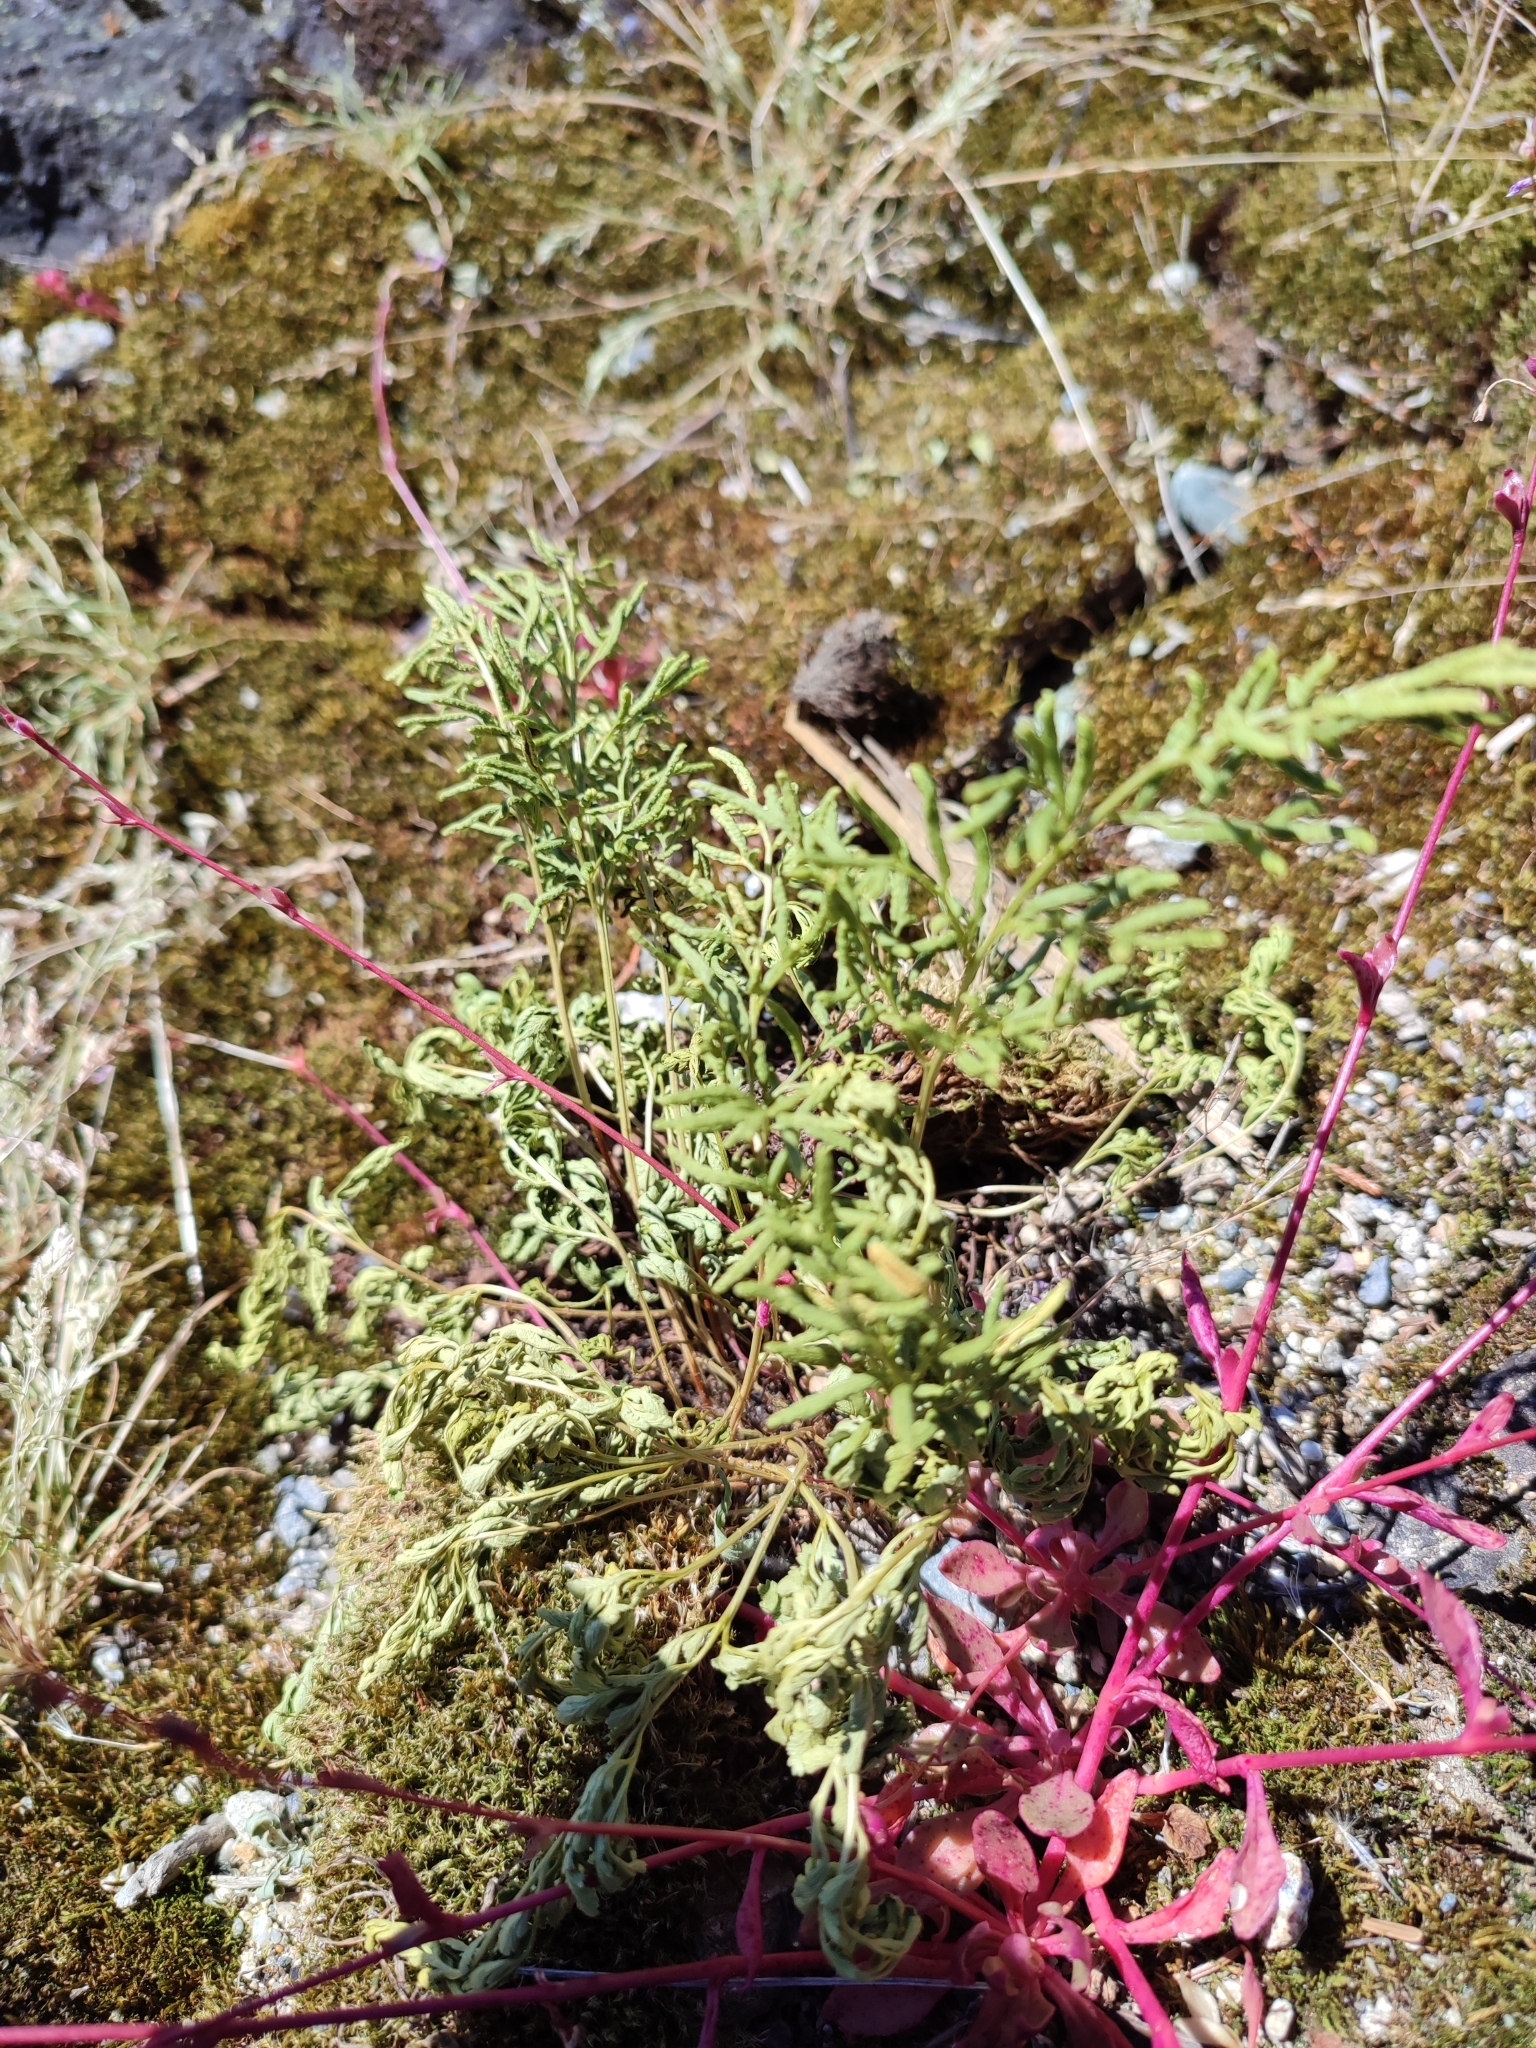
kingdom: Plantae
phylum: Tracheophyta
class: Polypodiopsida
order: Polypodiales
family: Pteridaceae
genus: Cryptogramma
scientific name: Cryptogramma acrostichoides
